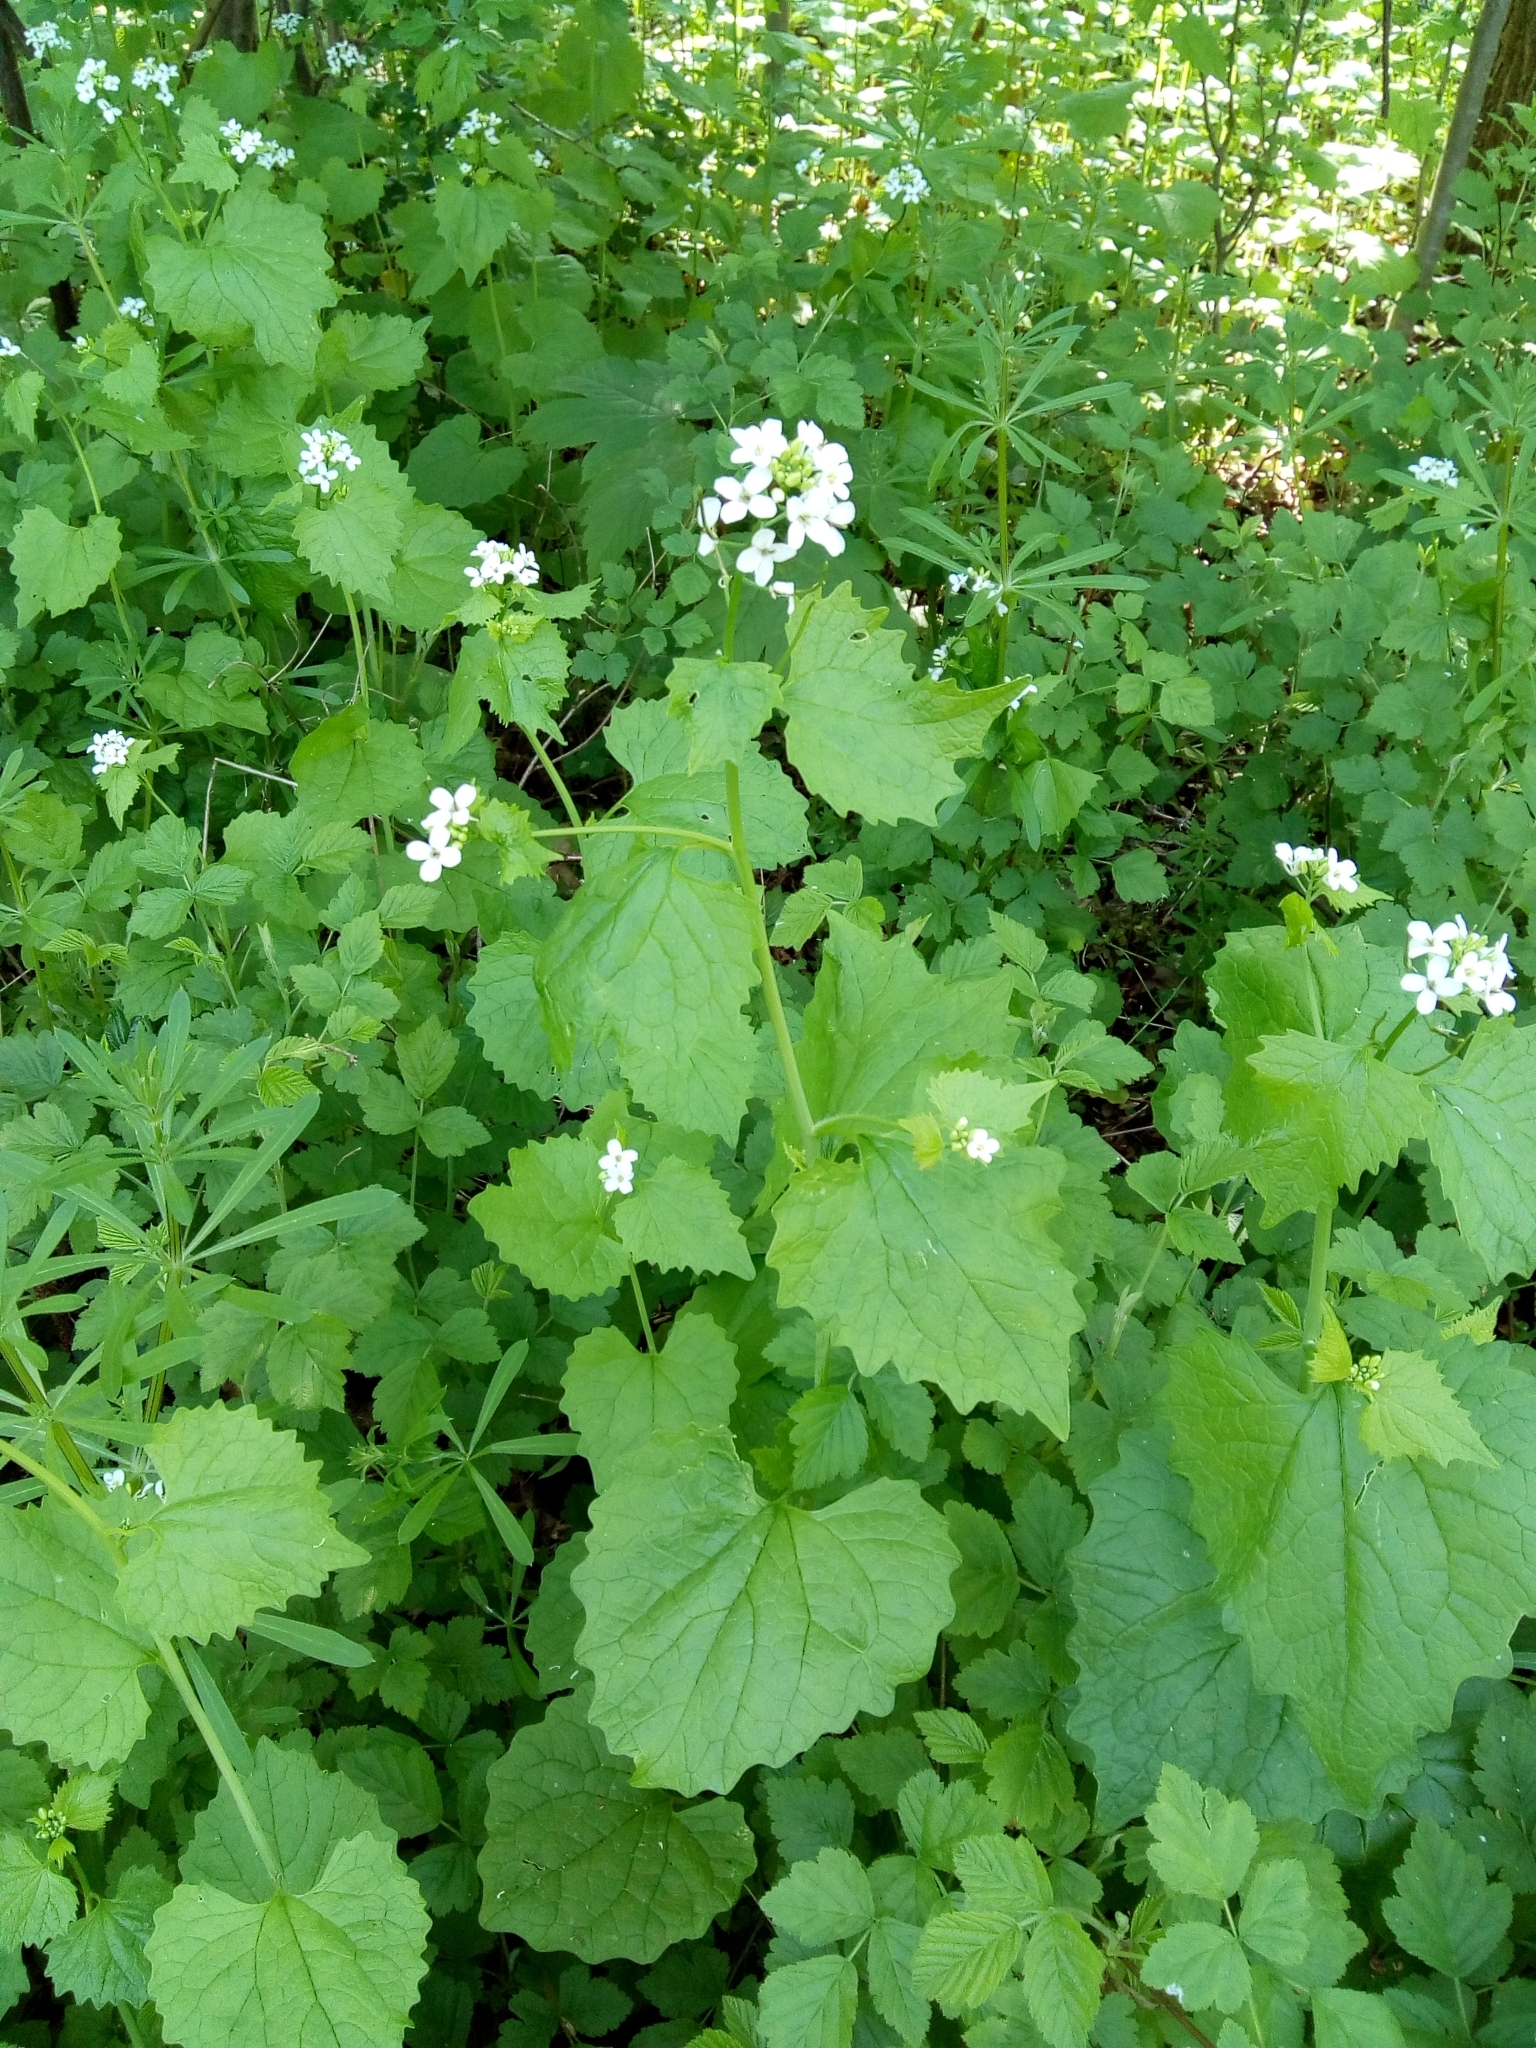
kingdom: Plantae
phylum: Tracheophyta
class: Magnoliopsida
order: Brassicales
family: Brassicaceae
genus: Alliaria
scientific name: Alliaria petiolata
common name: Garlic mustard
